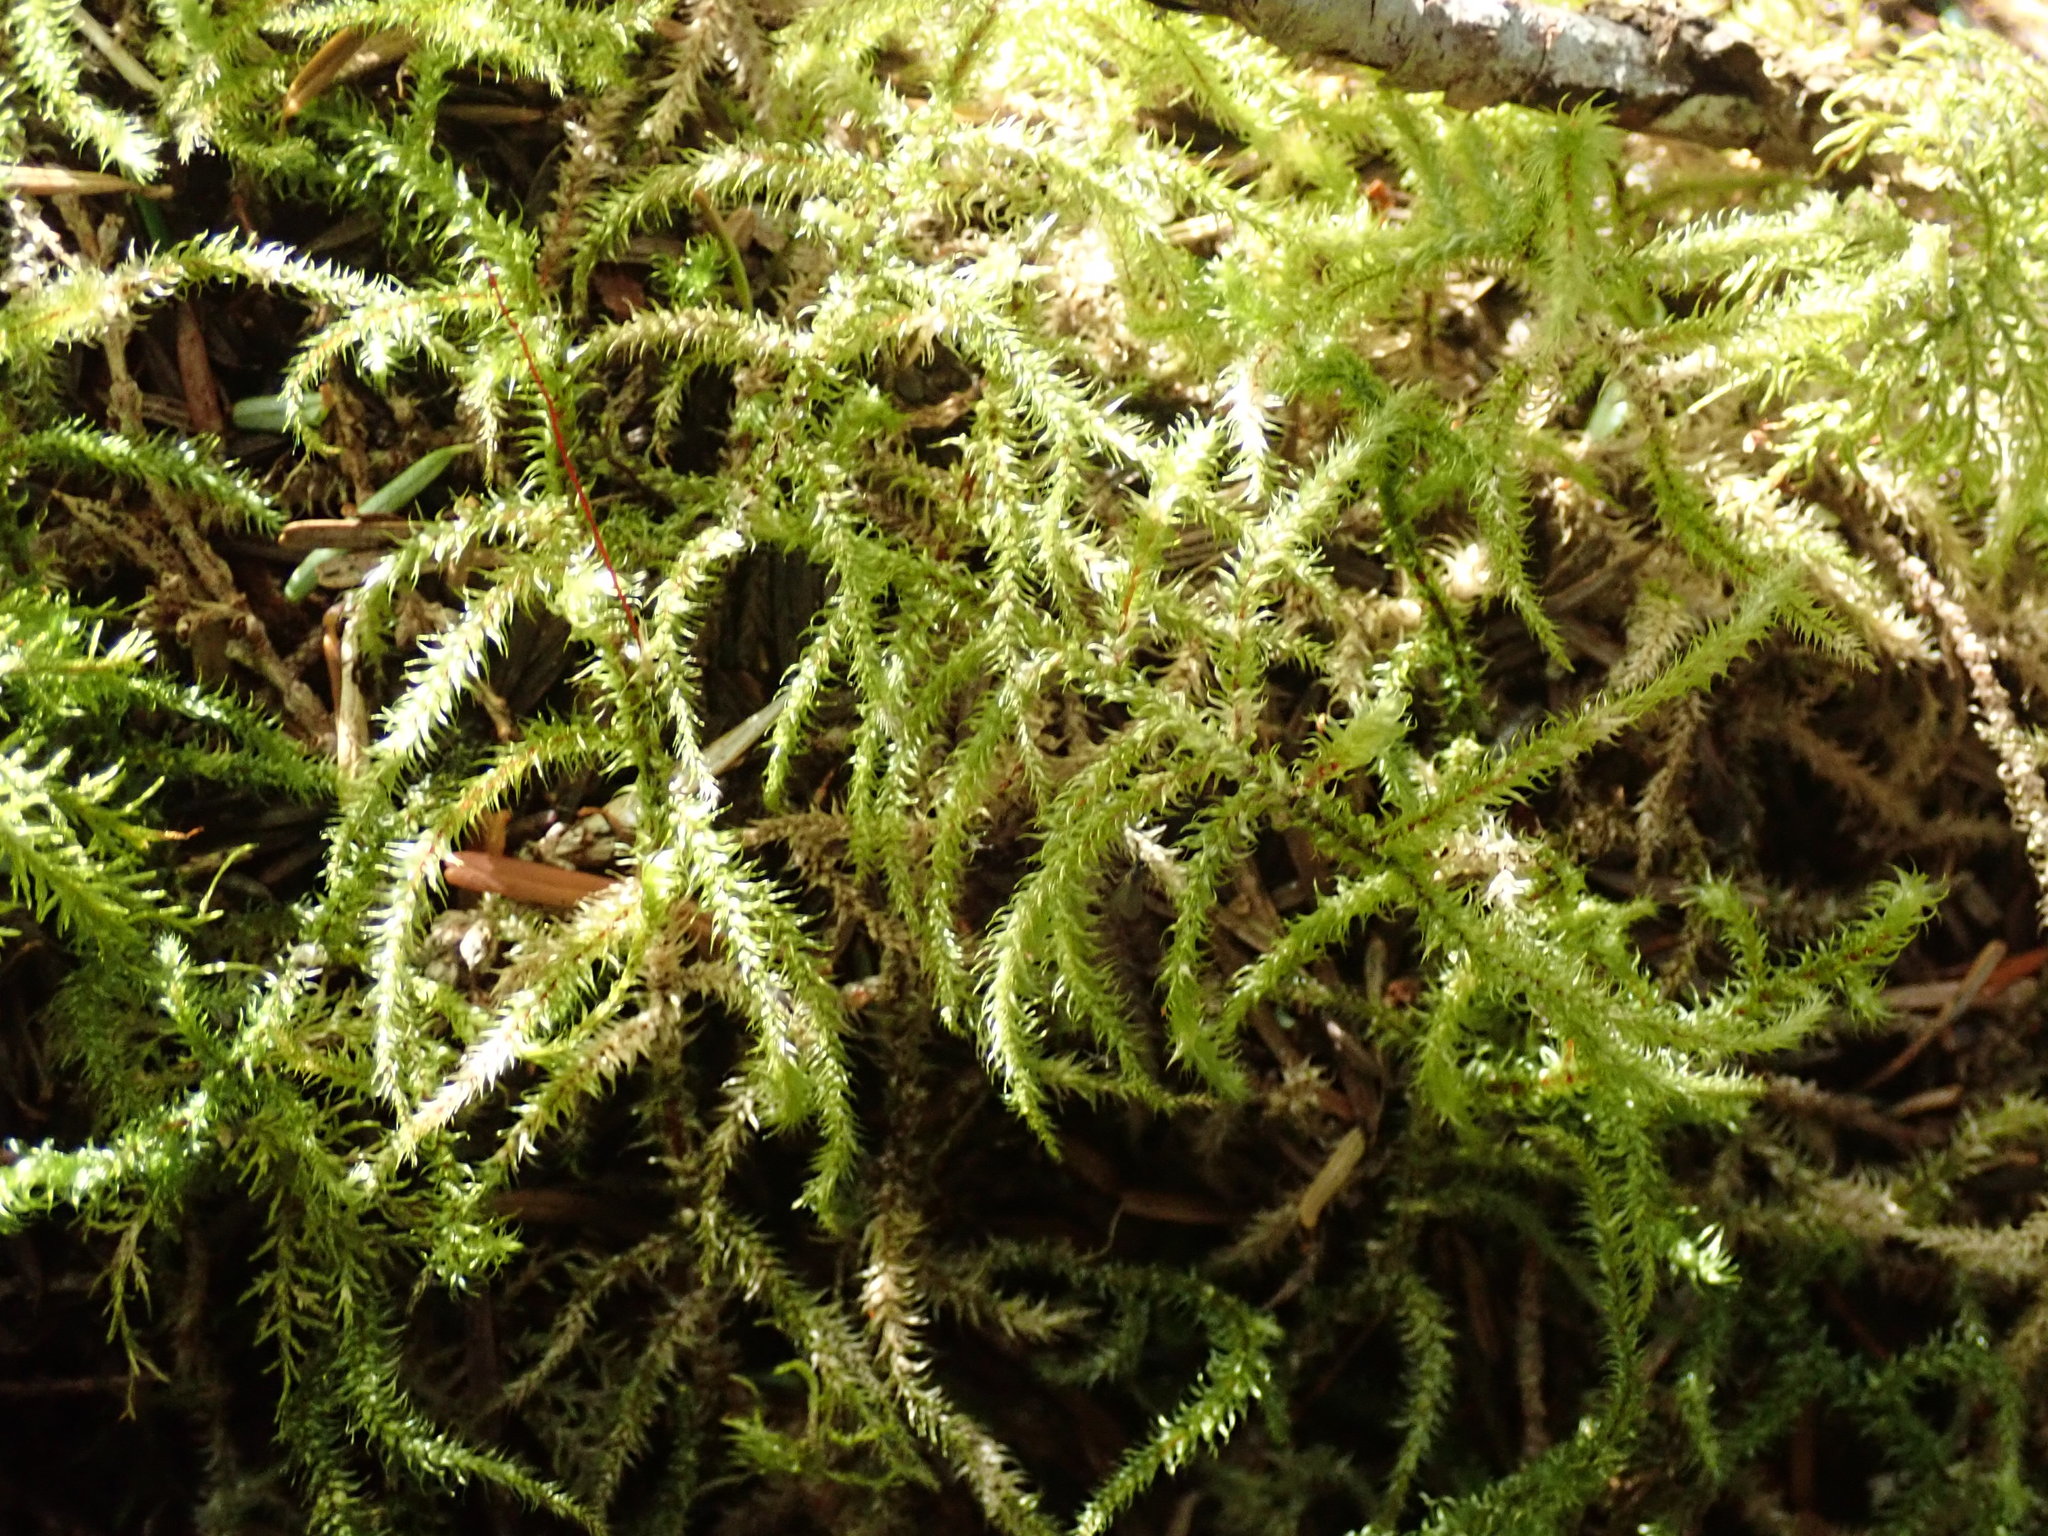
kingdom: Plantae
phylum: Bryophyta
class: Bryopsida
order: Hypnales
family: Hylocomiaceae
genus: Rhytidiadelphus
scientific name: Rhytidiadelphus loreus
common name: Lanky moss
